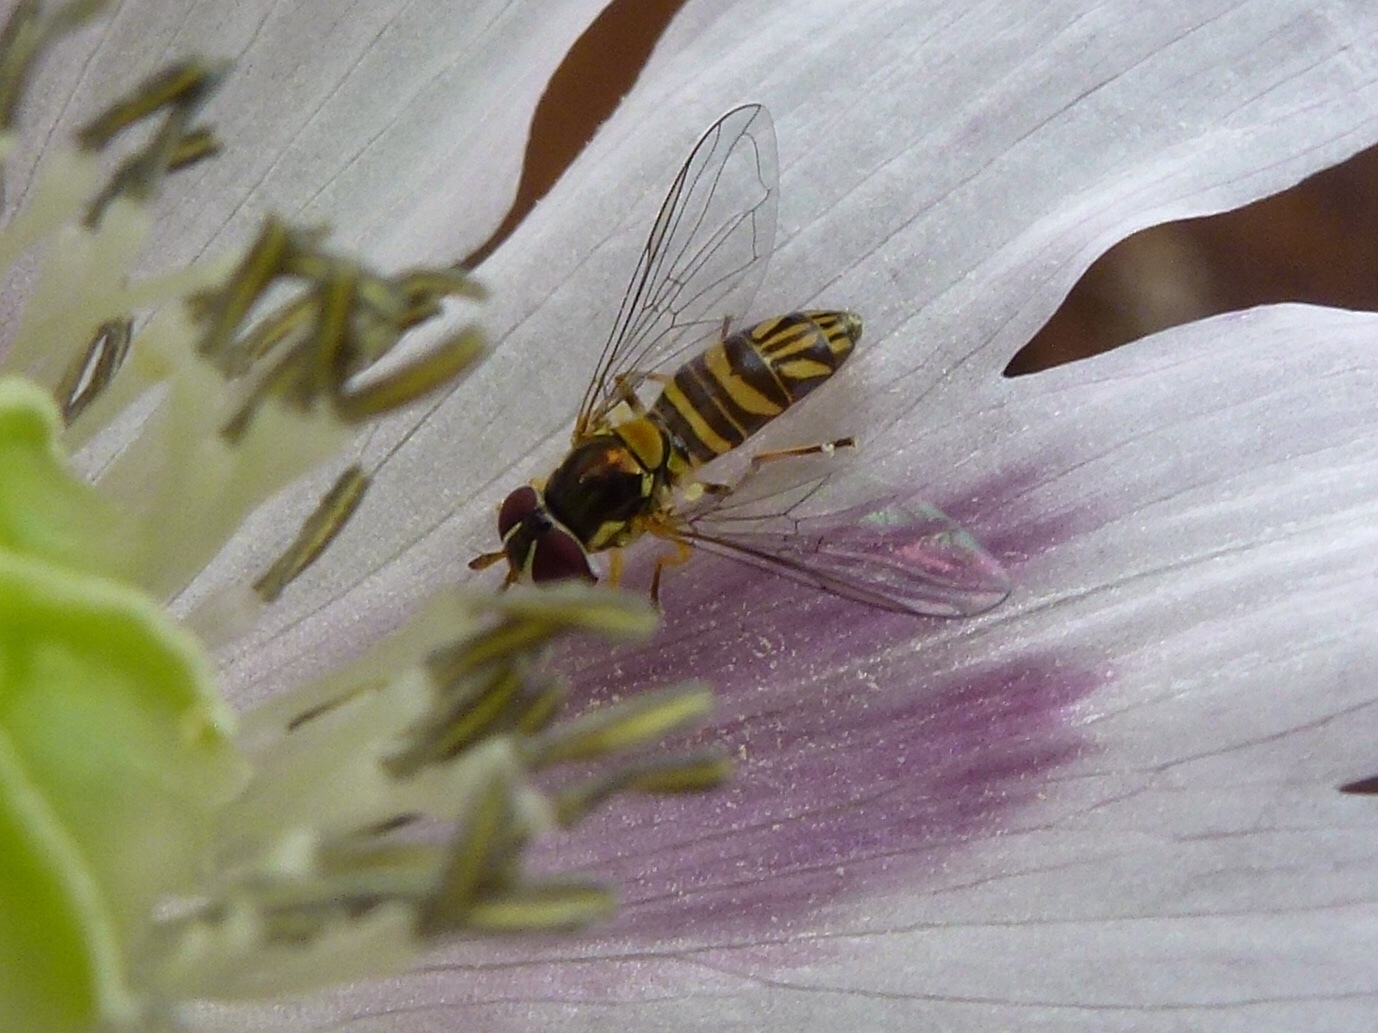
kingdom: Animalia
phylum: Arthropoda
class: Insecta
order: Diptera
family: Syrphidae
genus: Allograpta
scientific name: Allograpta obliqua
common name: Common oblique syrphid
